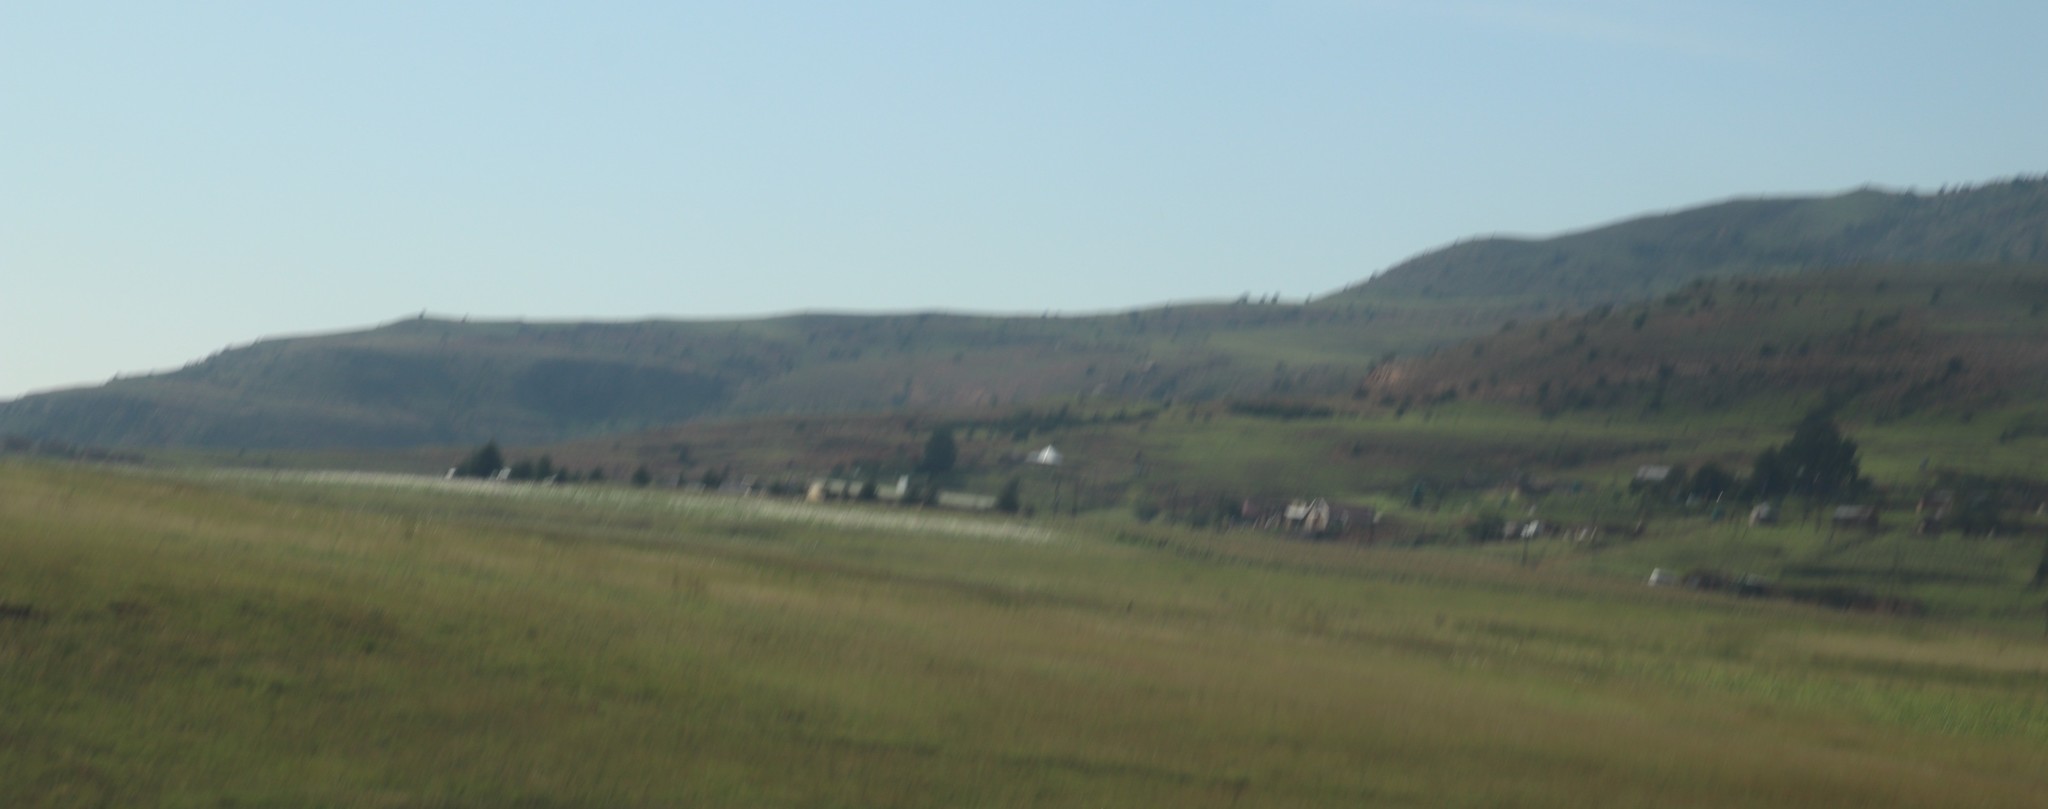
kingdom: Plantae
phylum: Tracheophyta
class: Magnoliopsida
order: Asterales
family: Asteraceae
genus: Cosmos
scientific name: Cosmos bipinnatus
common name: Garden cosmos
